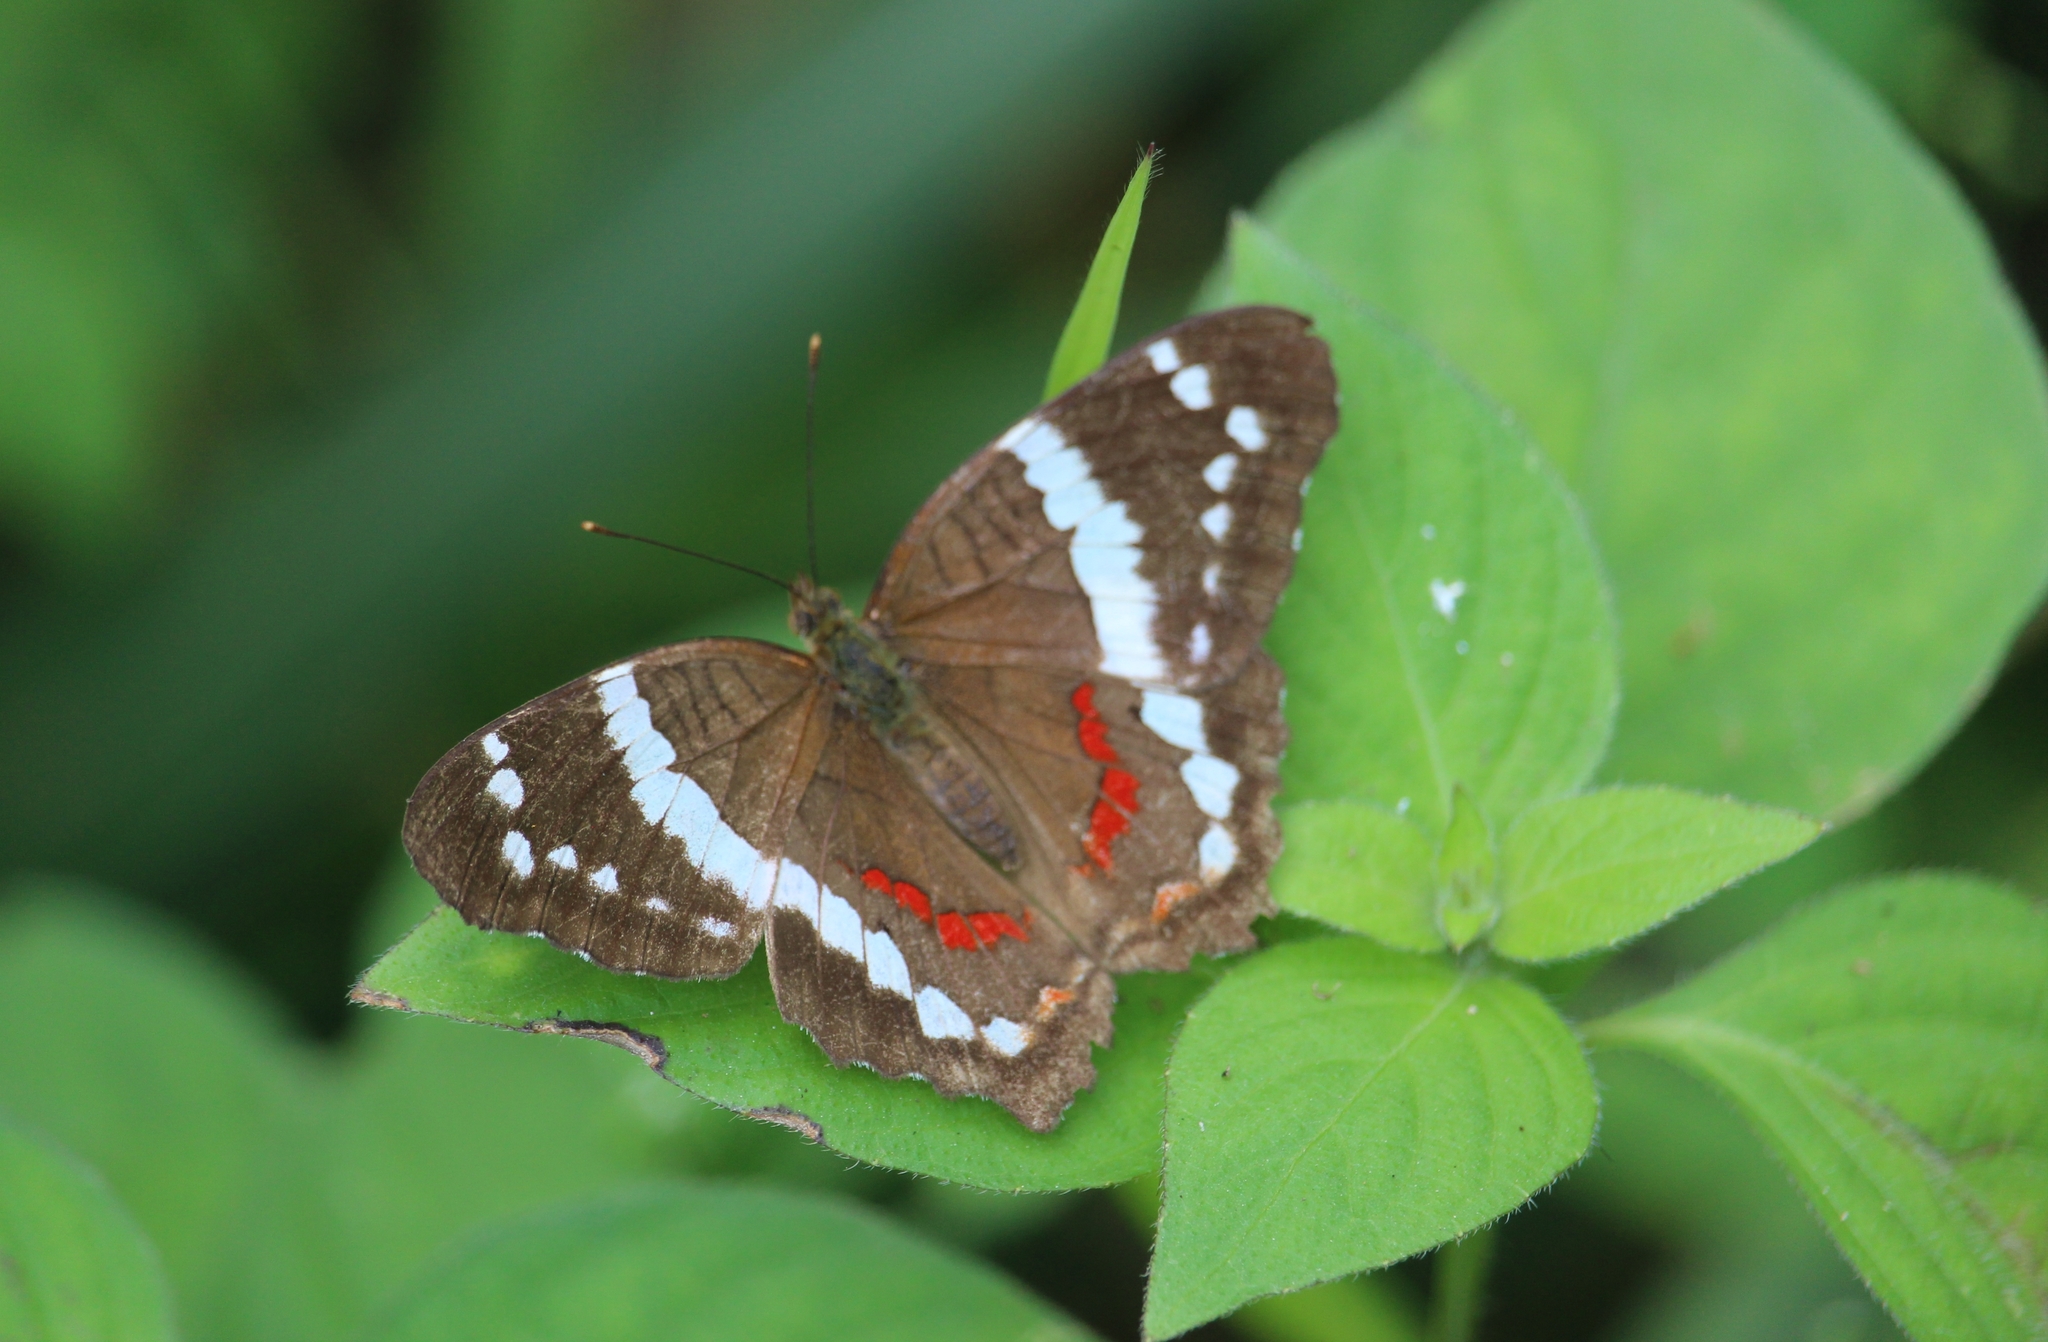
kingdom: Animalia
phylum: Arthropoda
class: Insecta
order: Lepidoptera
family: Nymphalidae
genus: Anartia
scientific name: Anartia fatima
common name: Banded peacock
